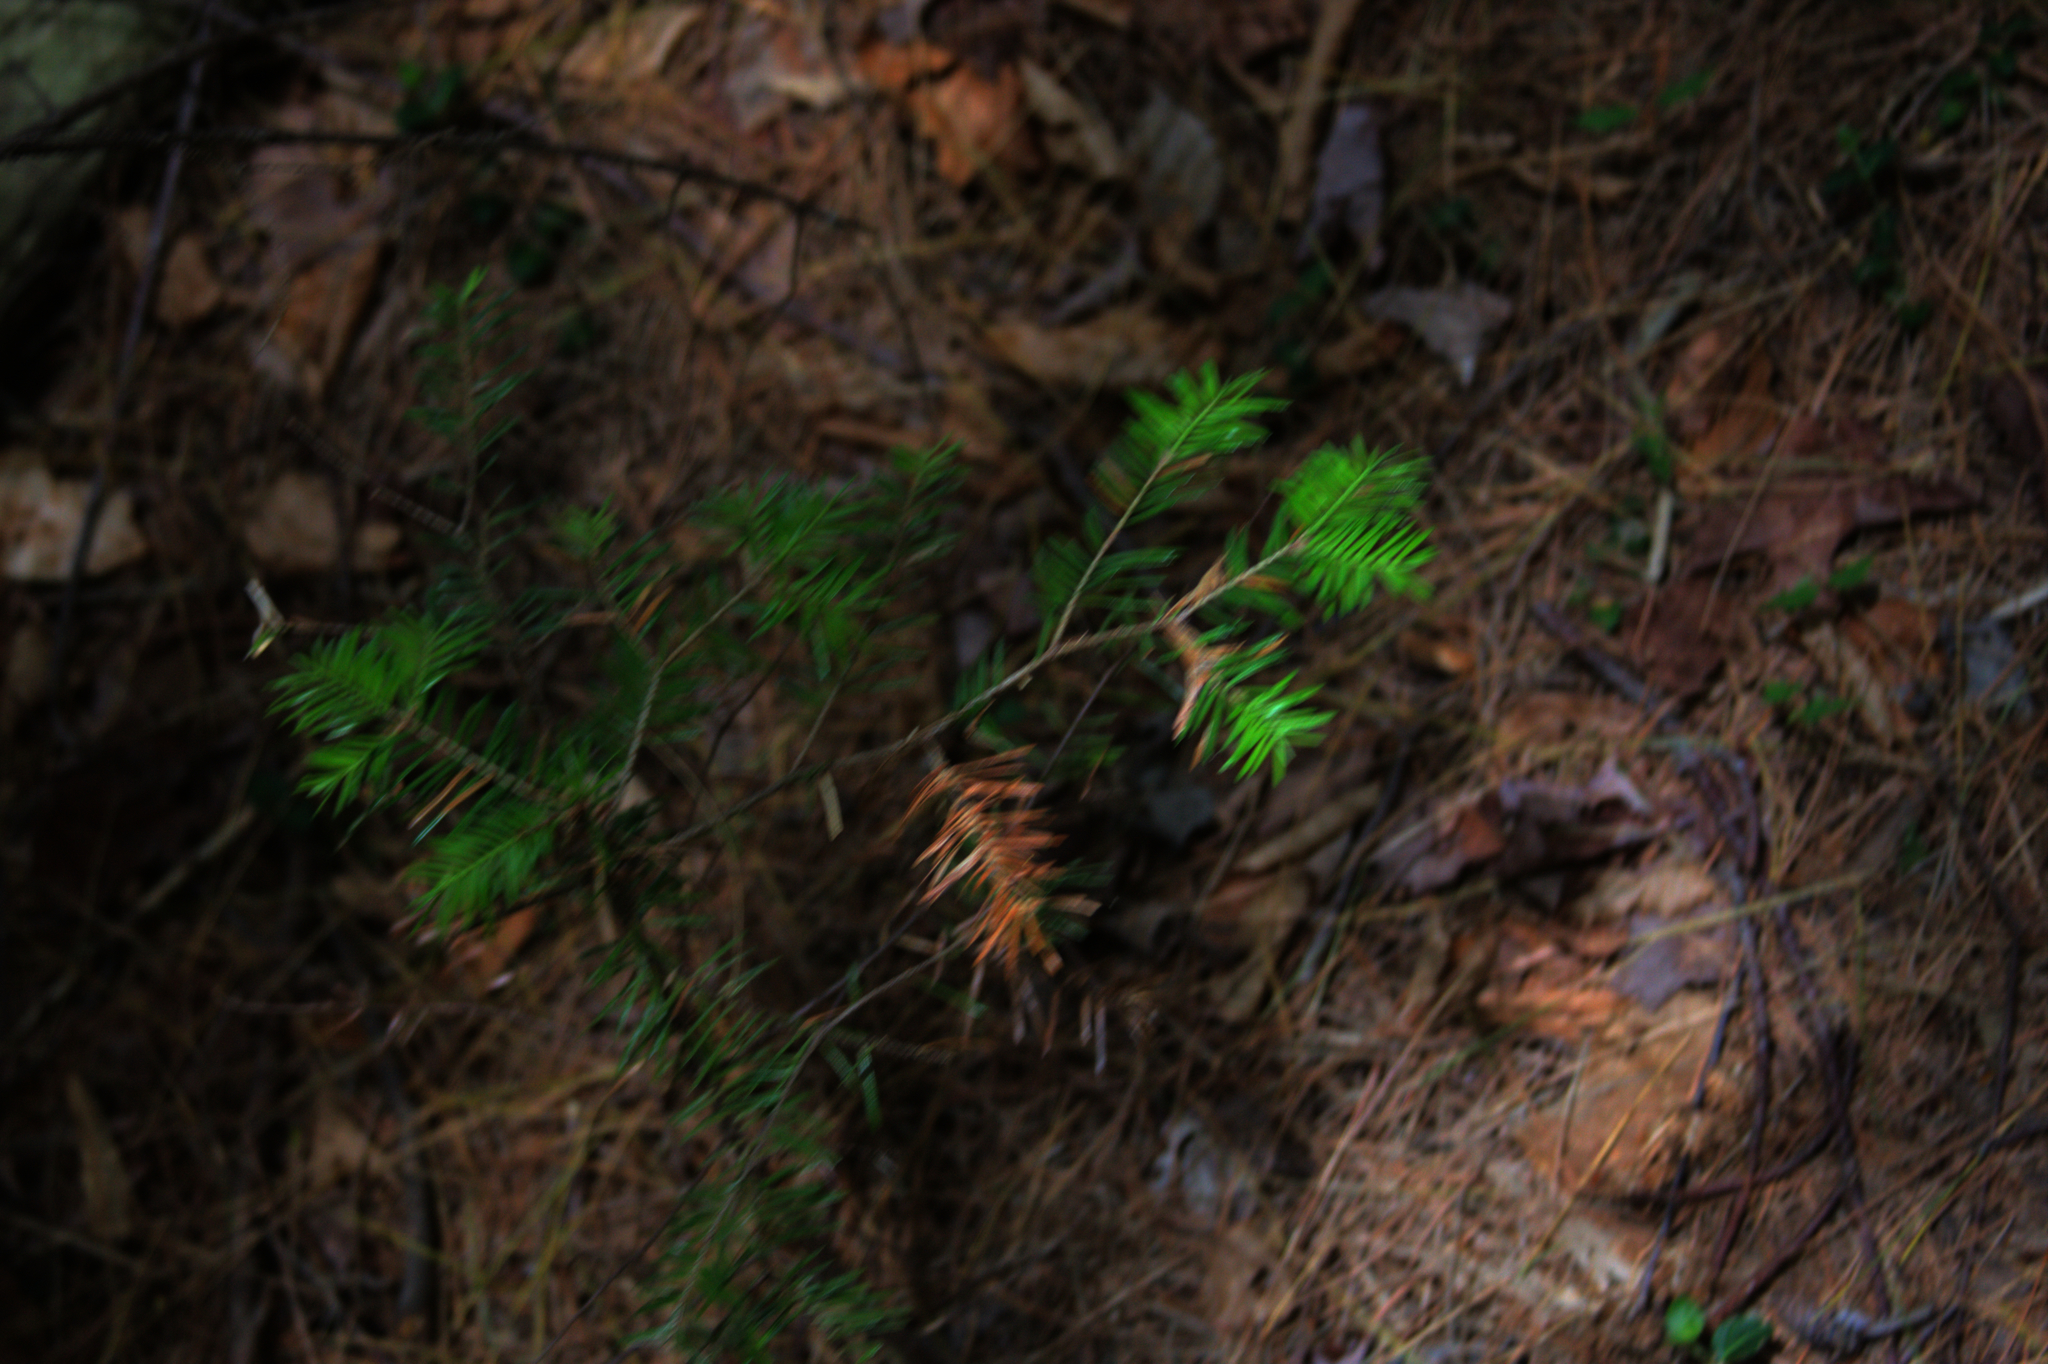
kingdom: Plantae
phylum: Tracheophyta
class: Pinopsida
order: Pinales
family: Pinaceae
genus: Tsuga
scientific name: Tsuga canadensis
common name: Eastern hemlock
